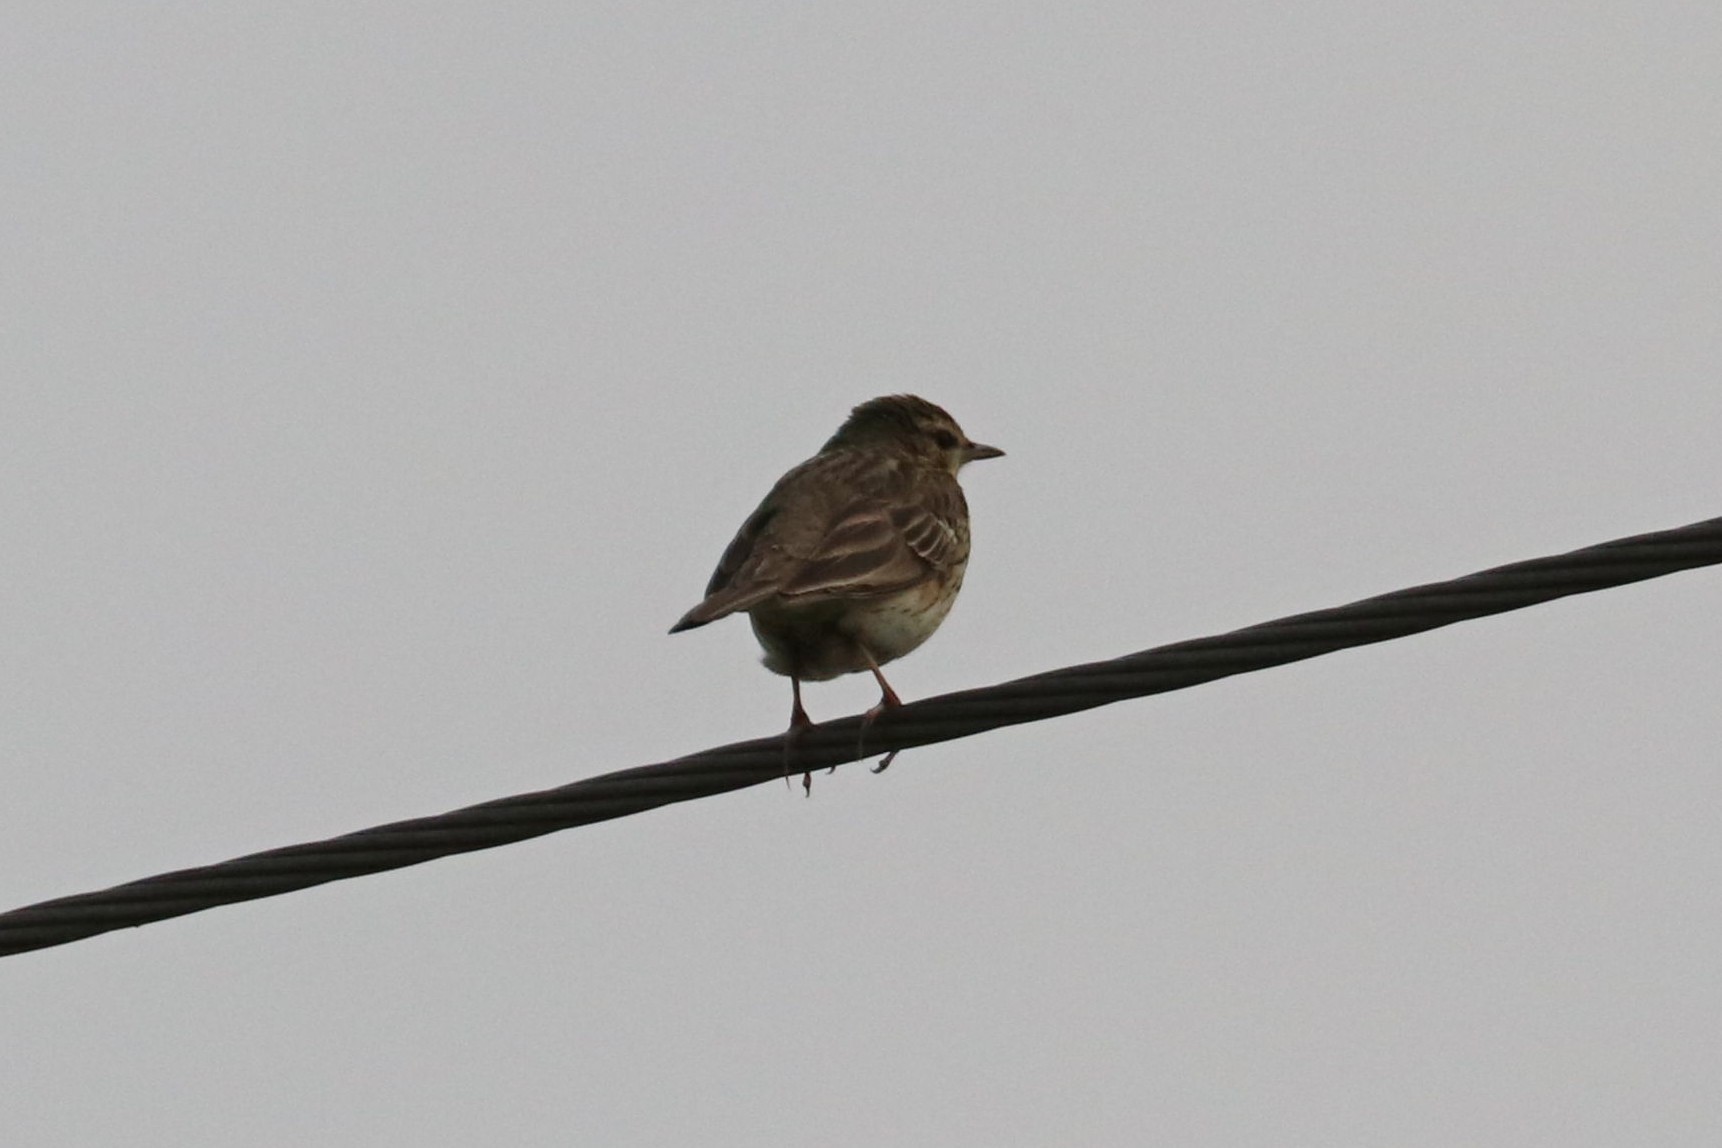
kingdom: Animalia
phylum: Chordata
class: Aves
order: Passeriformes
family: Motacillidae
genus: Anthus
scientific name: Anthus trivialis
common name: Tree pipit
